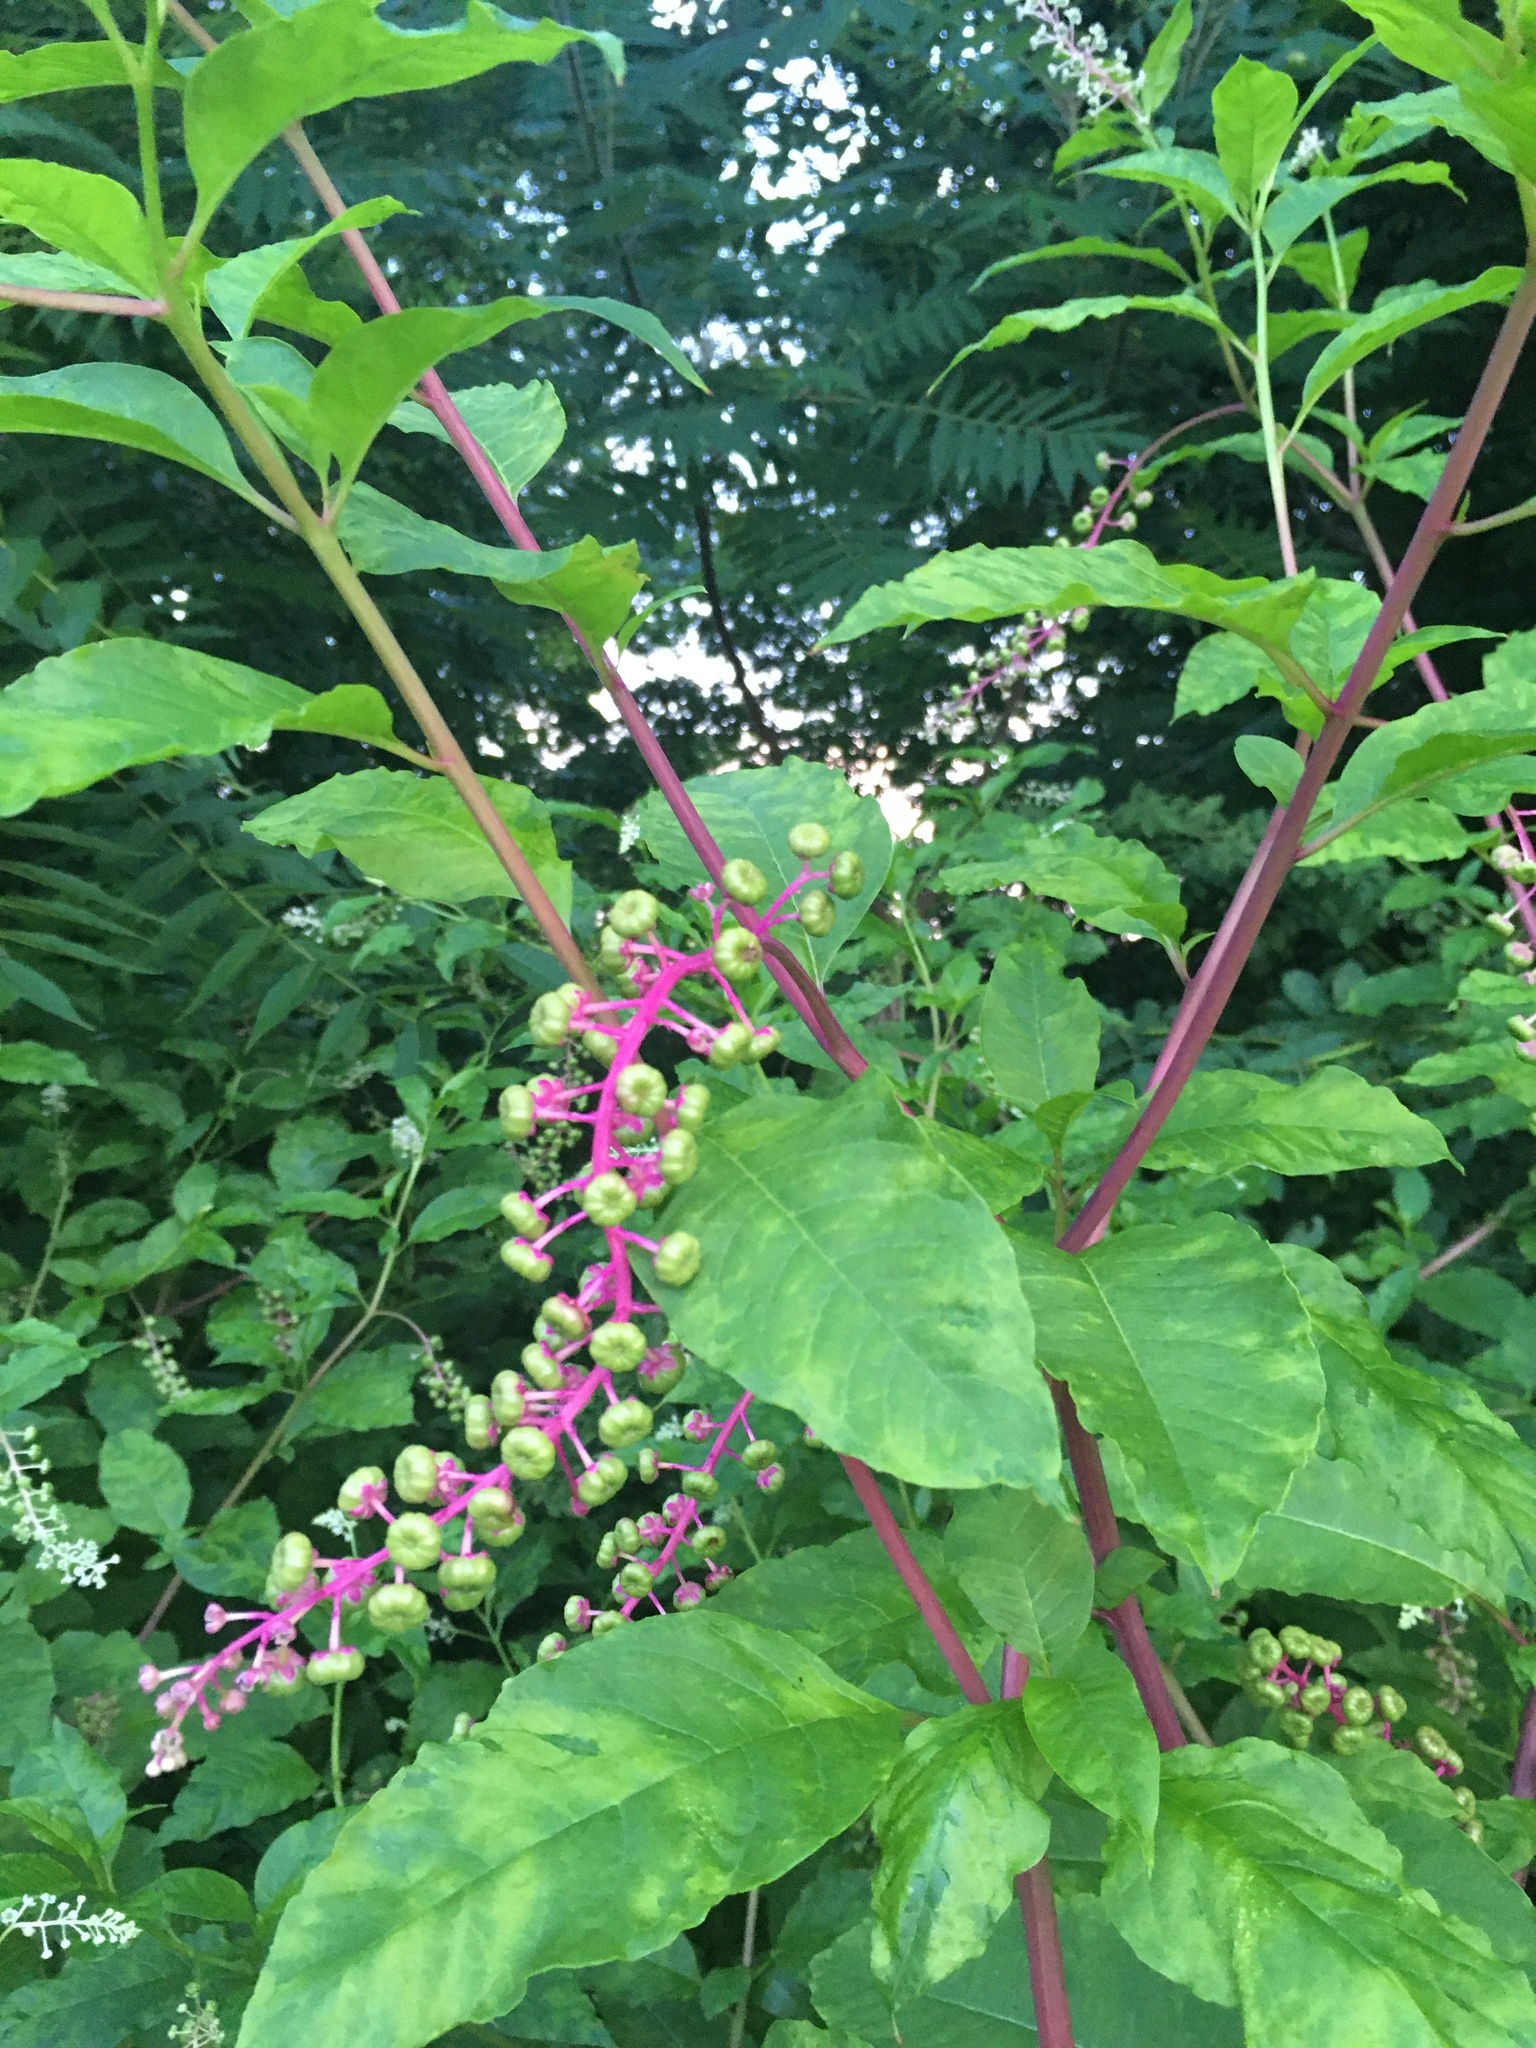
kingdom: Plantae
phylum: Tracheophyta
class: Magnoliopsida
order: Caryophyllales
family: Phytolaccaceae
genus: Phytolacca
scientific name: Phytolacca americana
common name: American pokeweed
